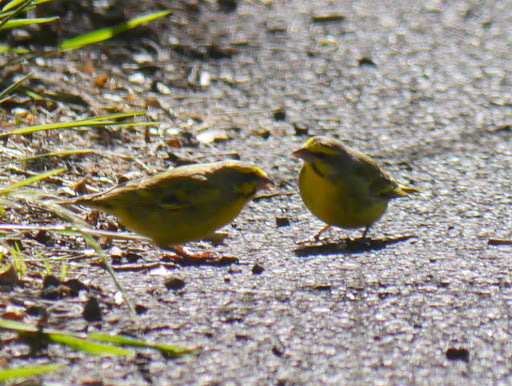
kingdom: Animalia
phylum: Chordata
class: Aves
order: Passeriformes
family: Fringillidae
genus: Crithagra
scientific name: Crithagra mozambica
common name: Yellow-fronted canary
